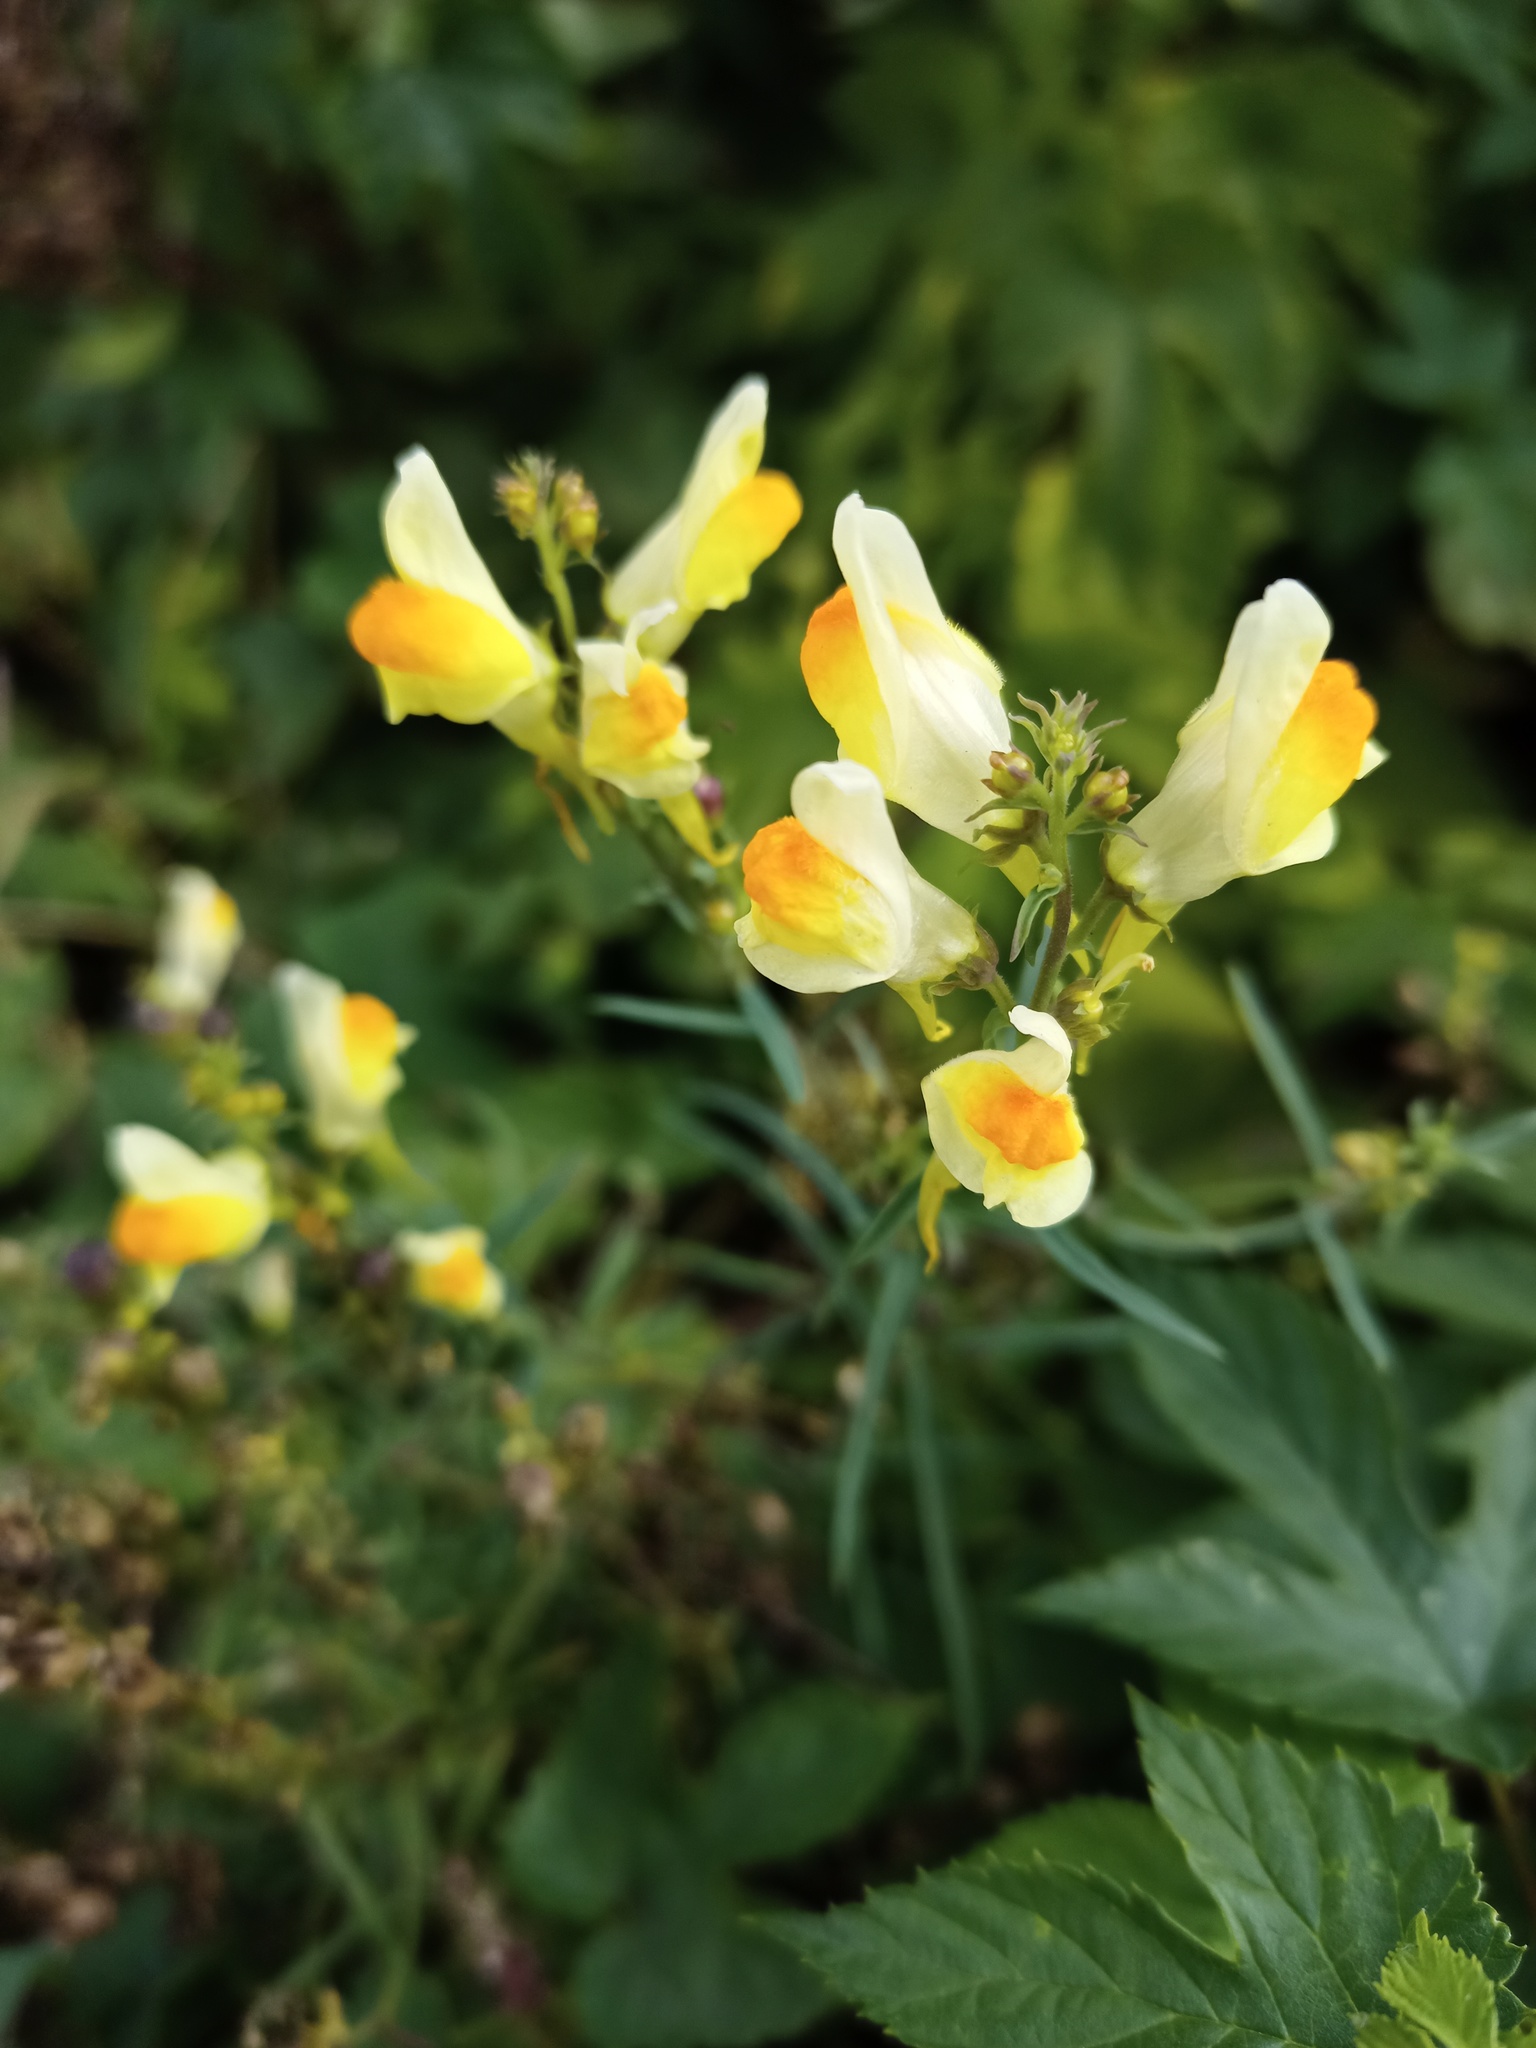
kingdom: Plantae
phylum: Tracheophyta
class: Magnoliopsida
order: Lamiales
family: Plantaginaceae
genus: Linaria
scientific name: Linaria vulgaris
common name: Butter and eggs
